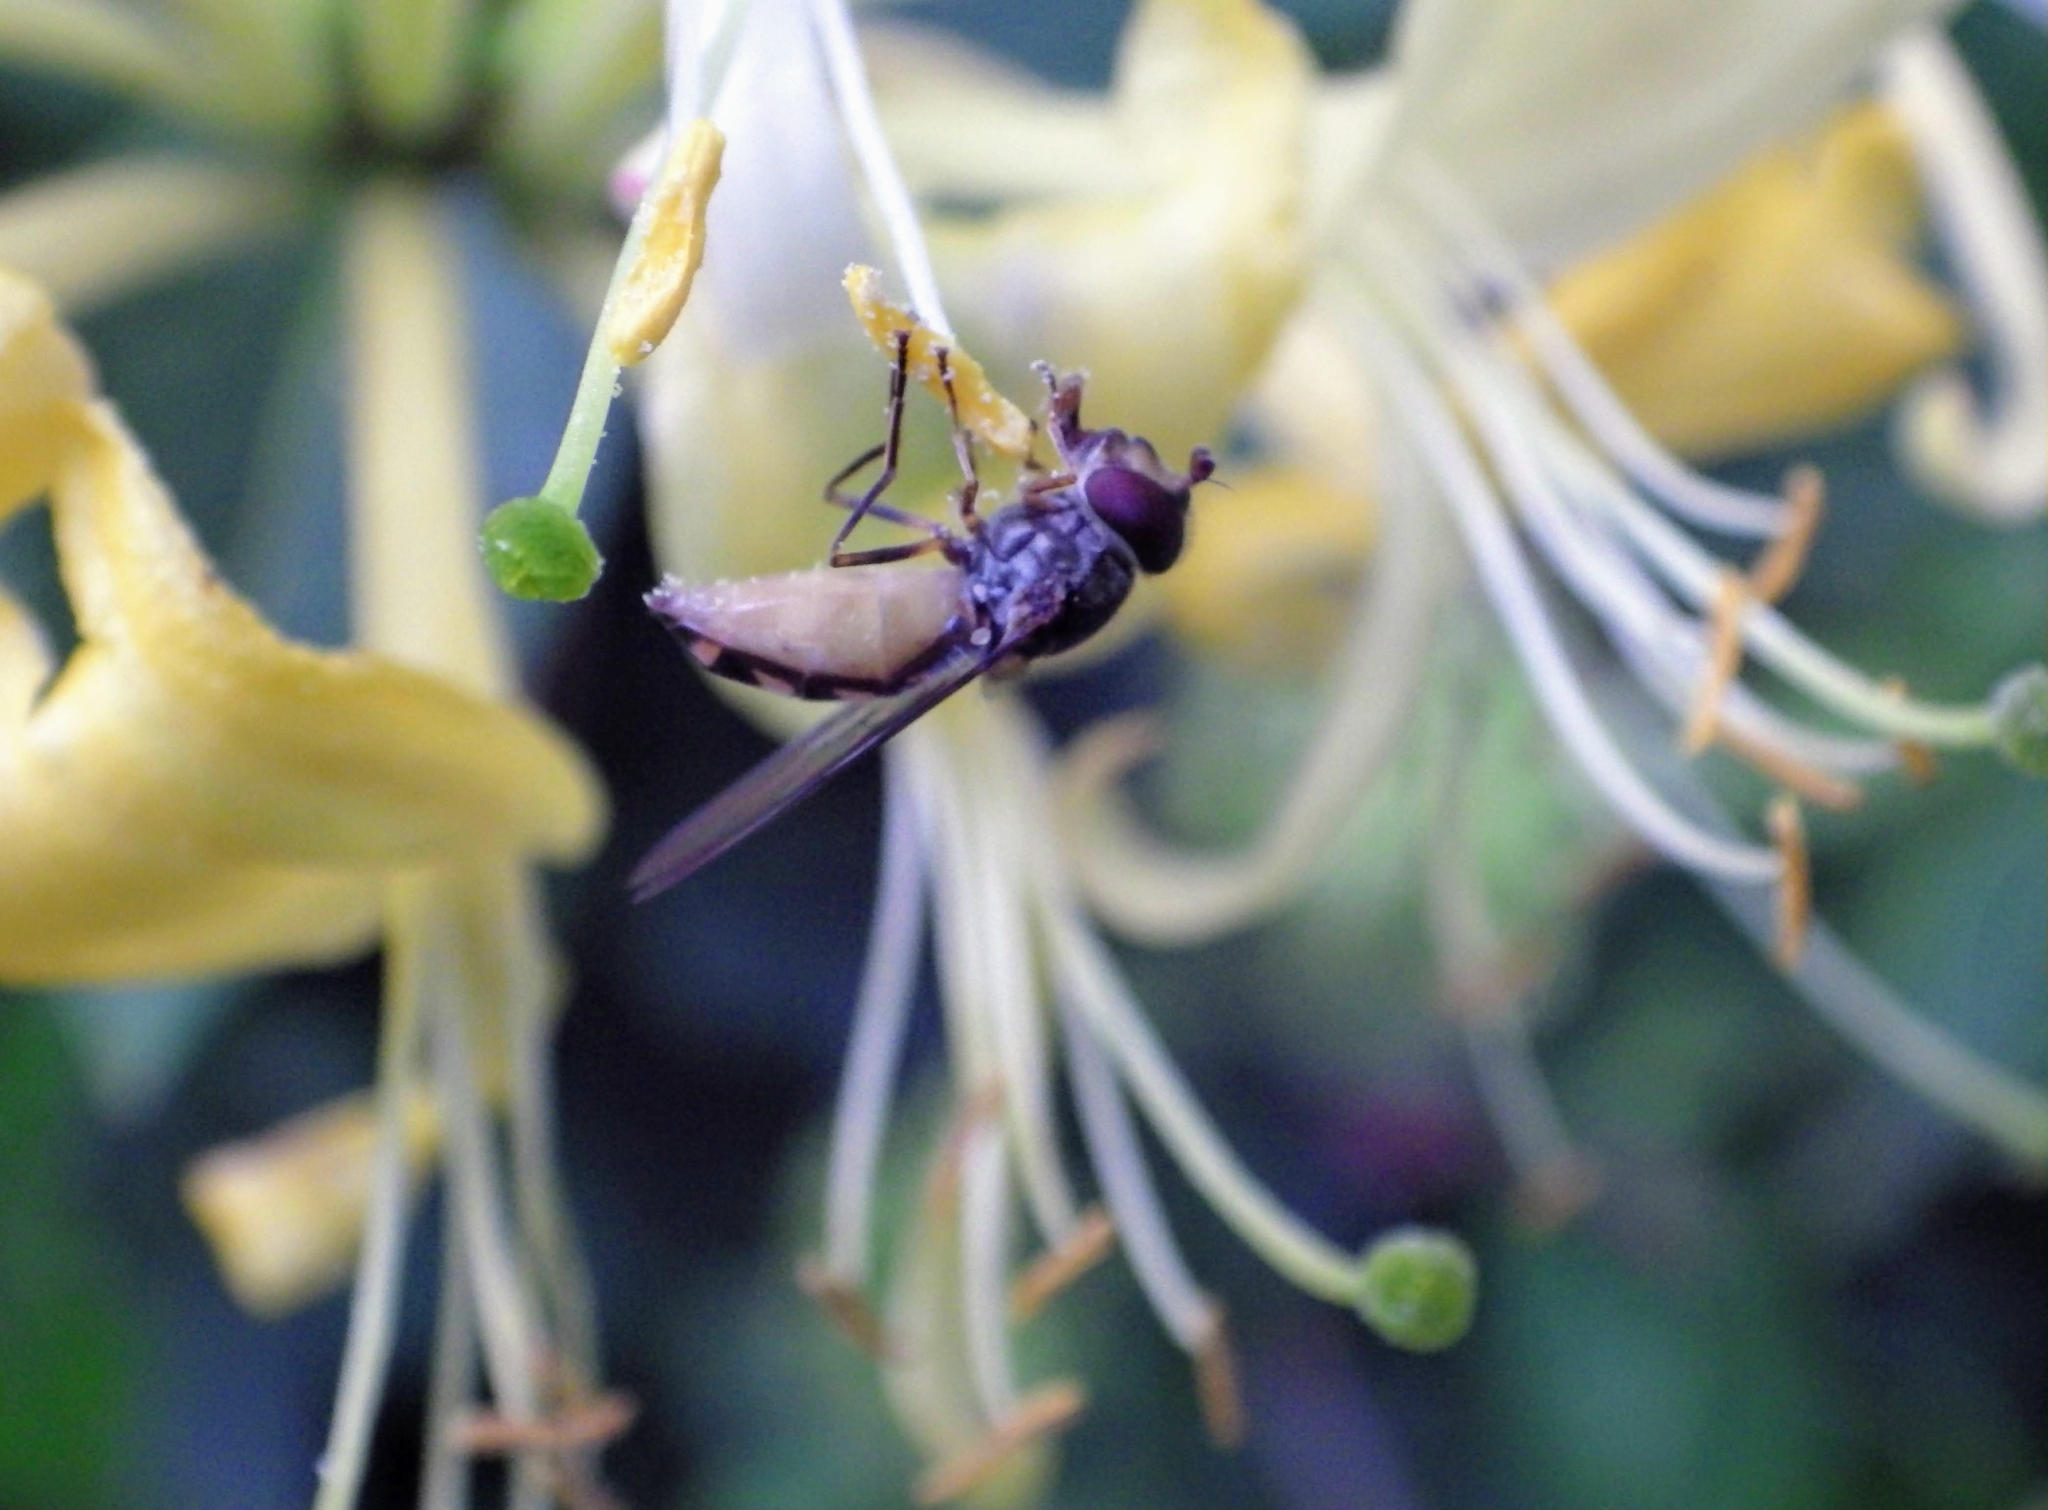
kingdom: Animalia
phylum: Arthropoda
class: Insecta
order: Diptera
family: Syrphidae
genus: Meliscaeva
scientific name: Meliscaeva auricollis
